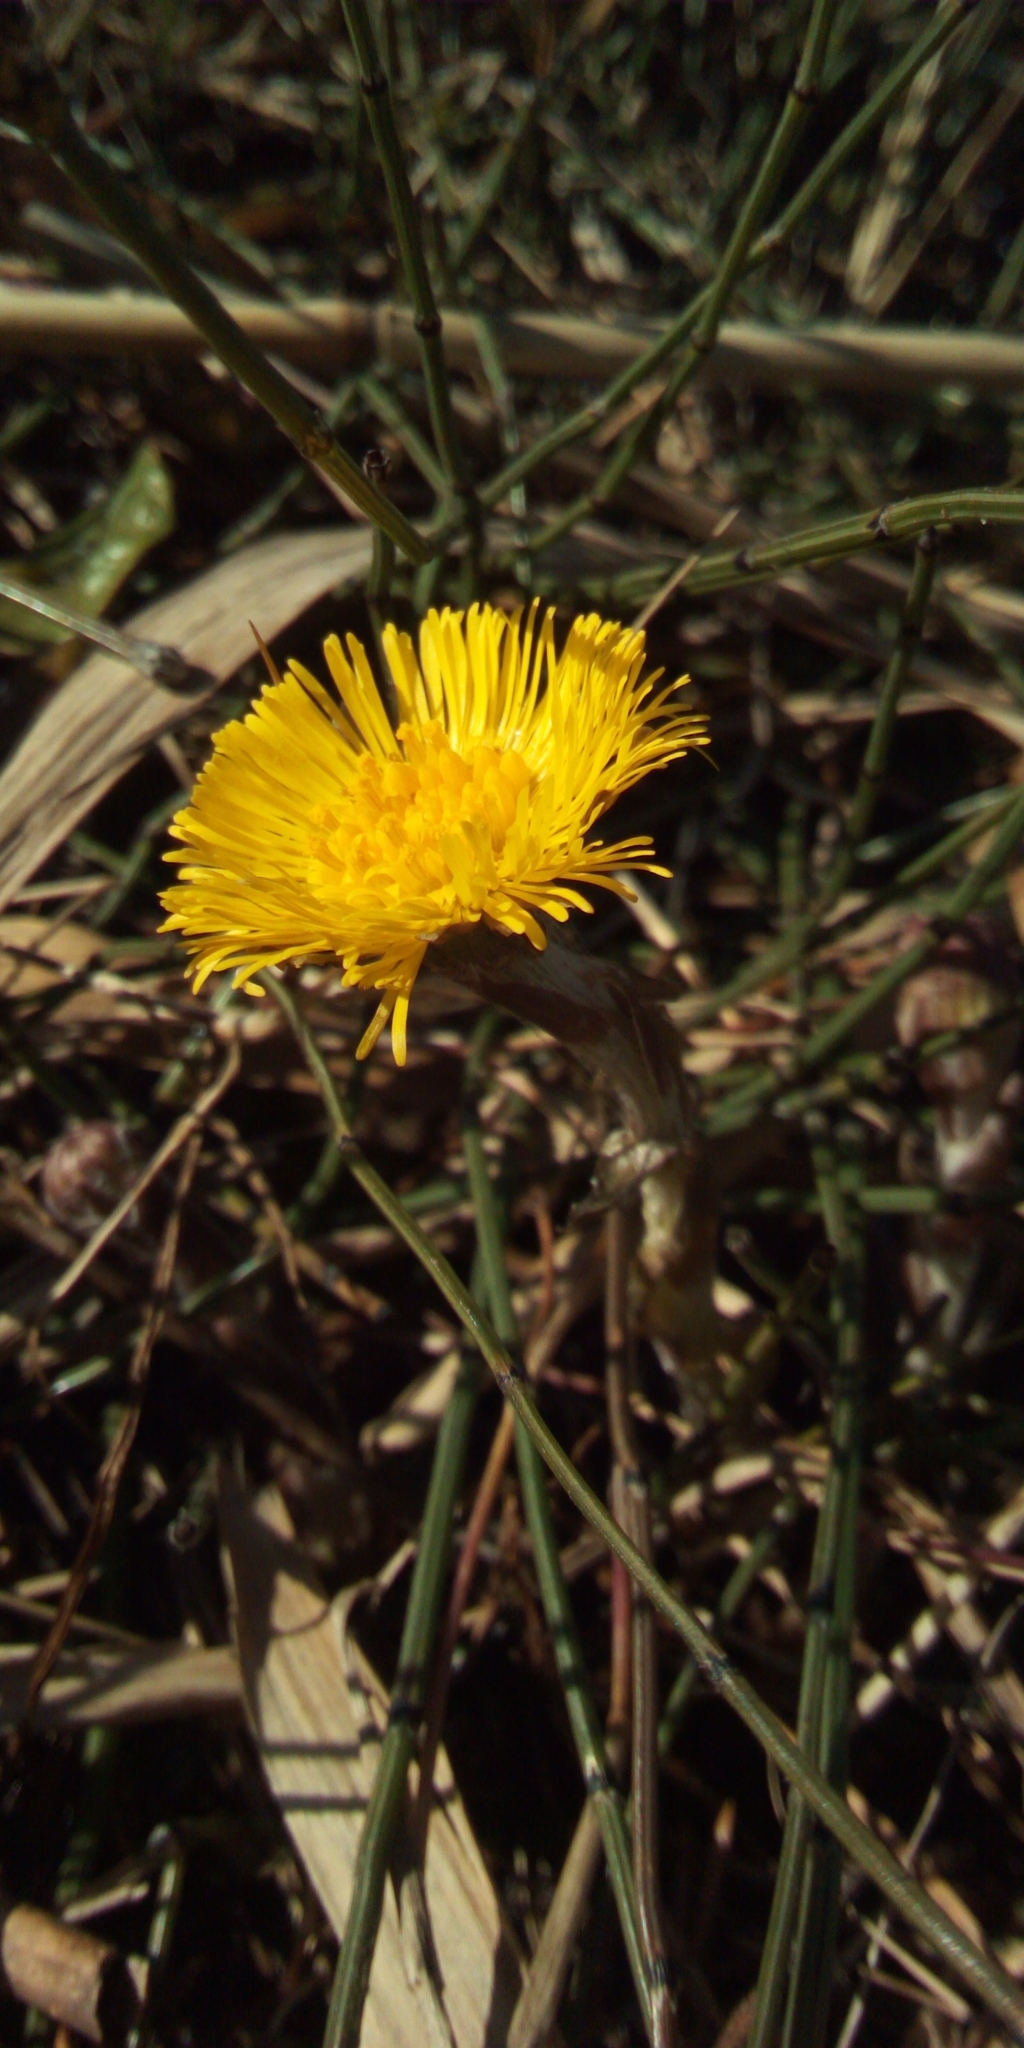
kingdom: Plantae
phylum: Tracheophyta
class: Magnoliopsida
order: Asterales
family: Asteraceae
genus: Tussilago
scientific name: Tussilago farfara
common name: Coltsfoot
